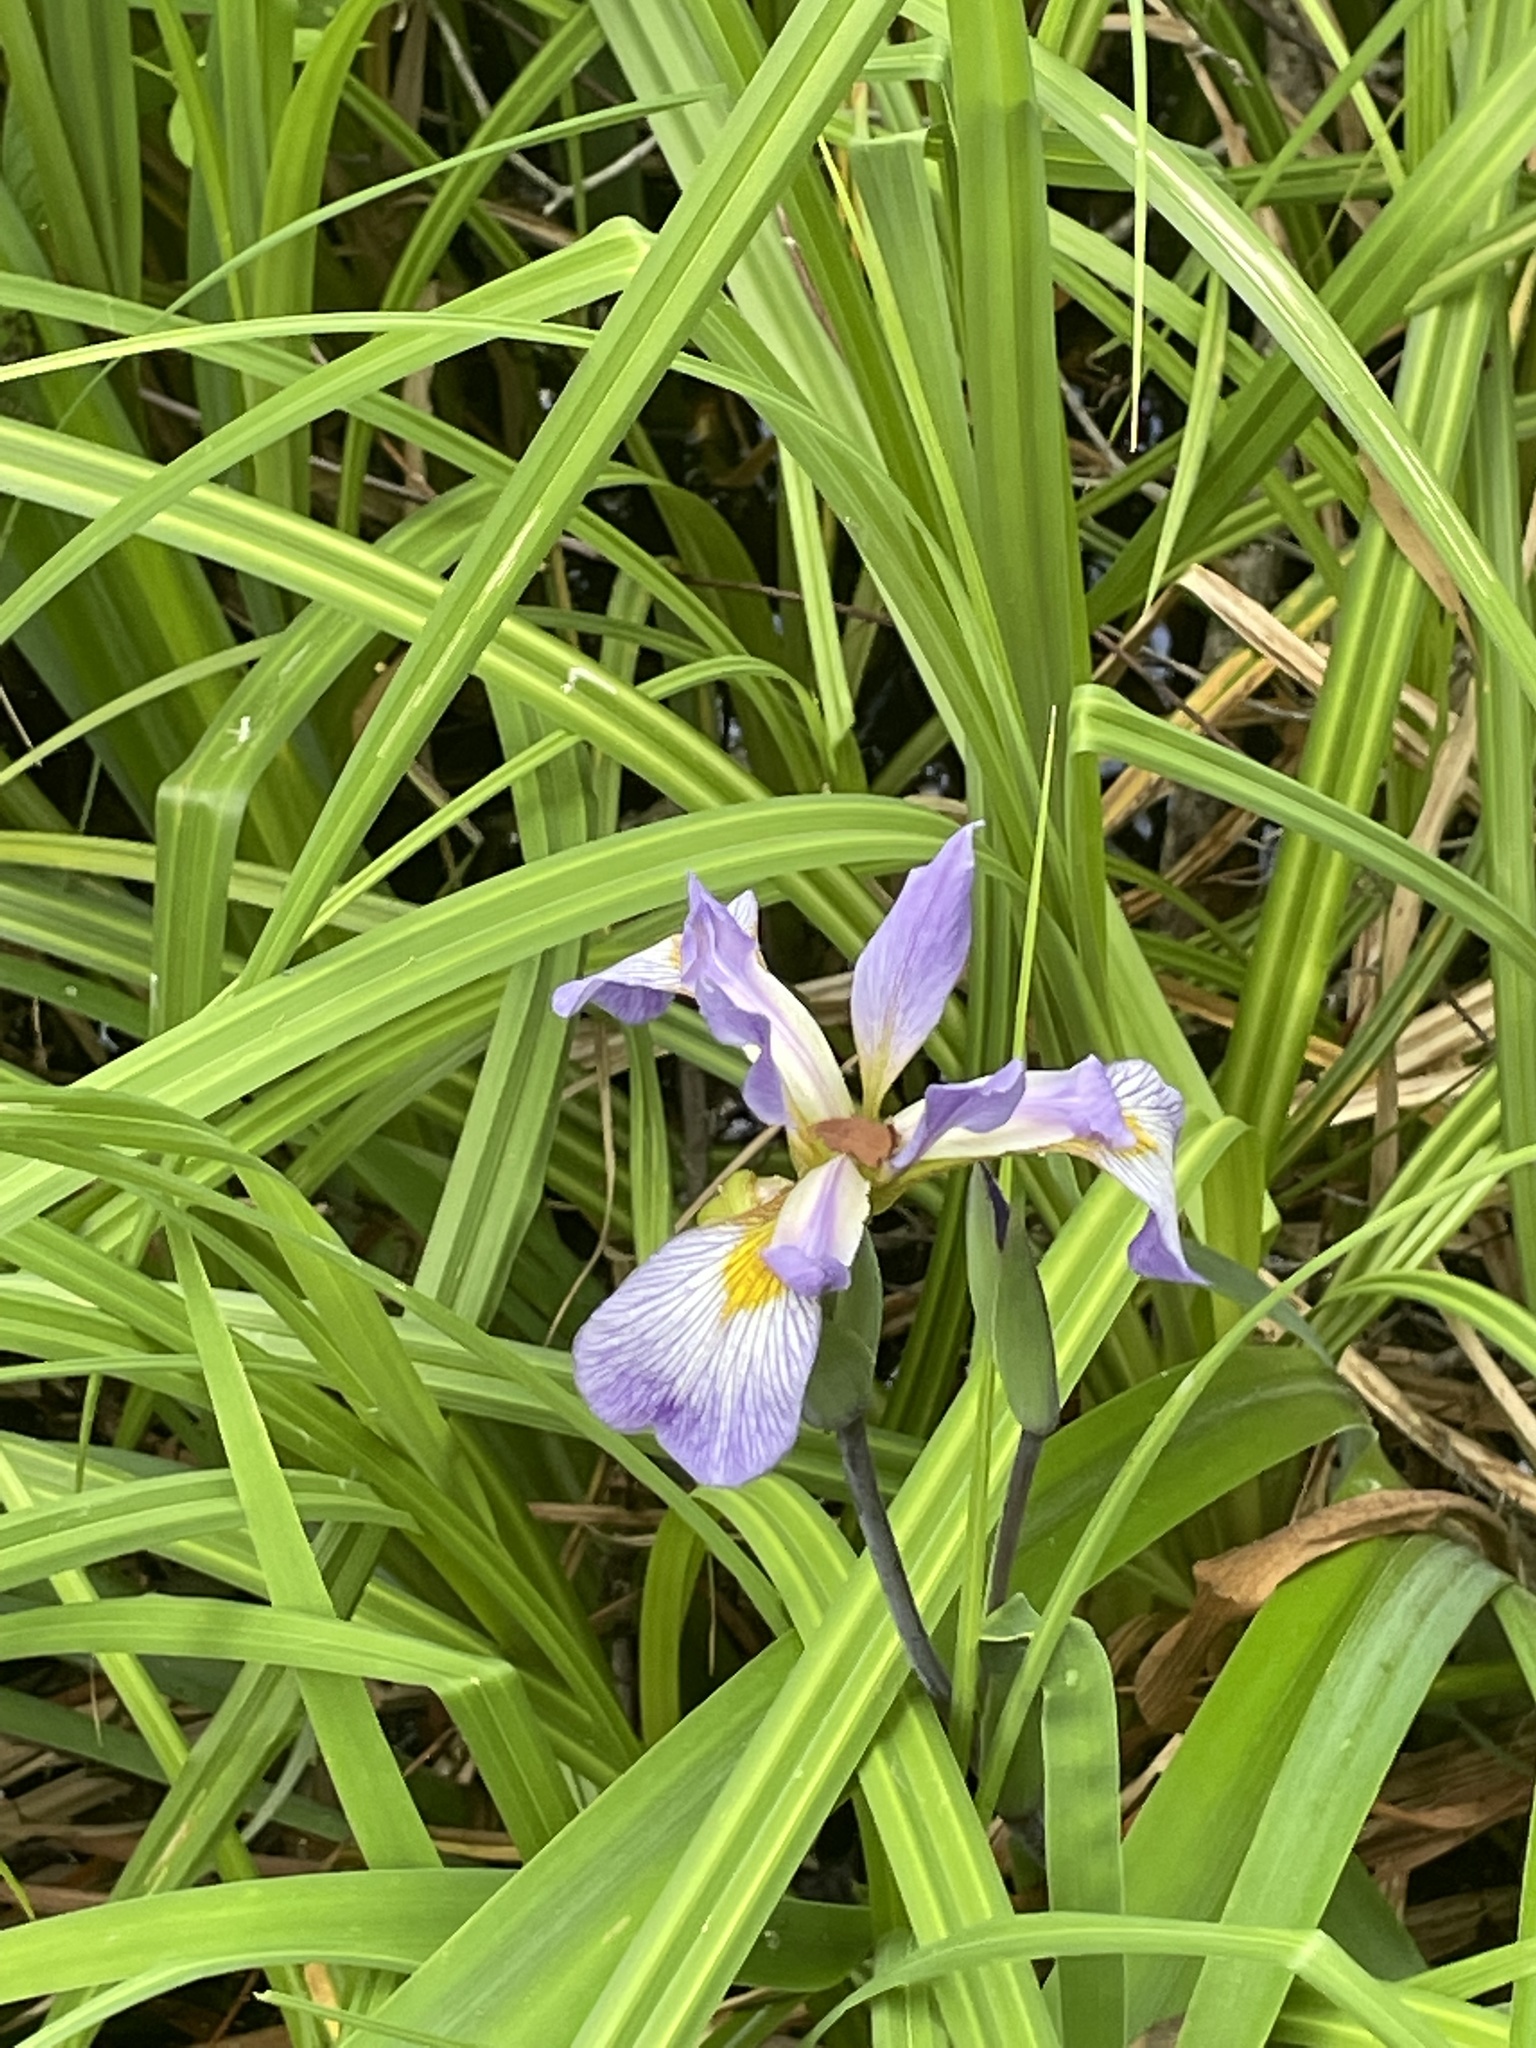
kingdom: Plantae
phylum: Tracheophyta
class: Liliopsida
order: Asparagales
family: Iridaceae
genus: Iris
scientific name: Iris virginica
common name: Southern blue flag
